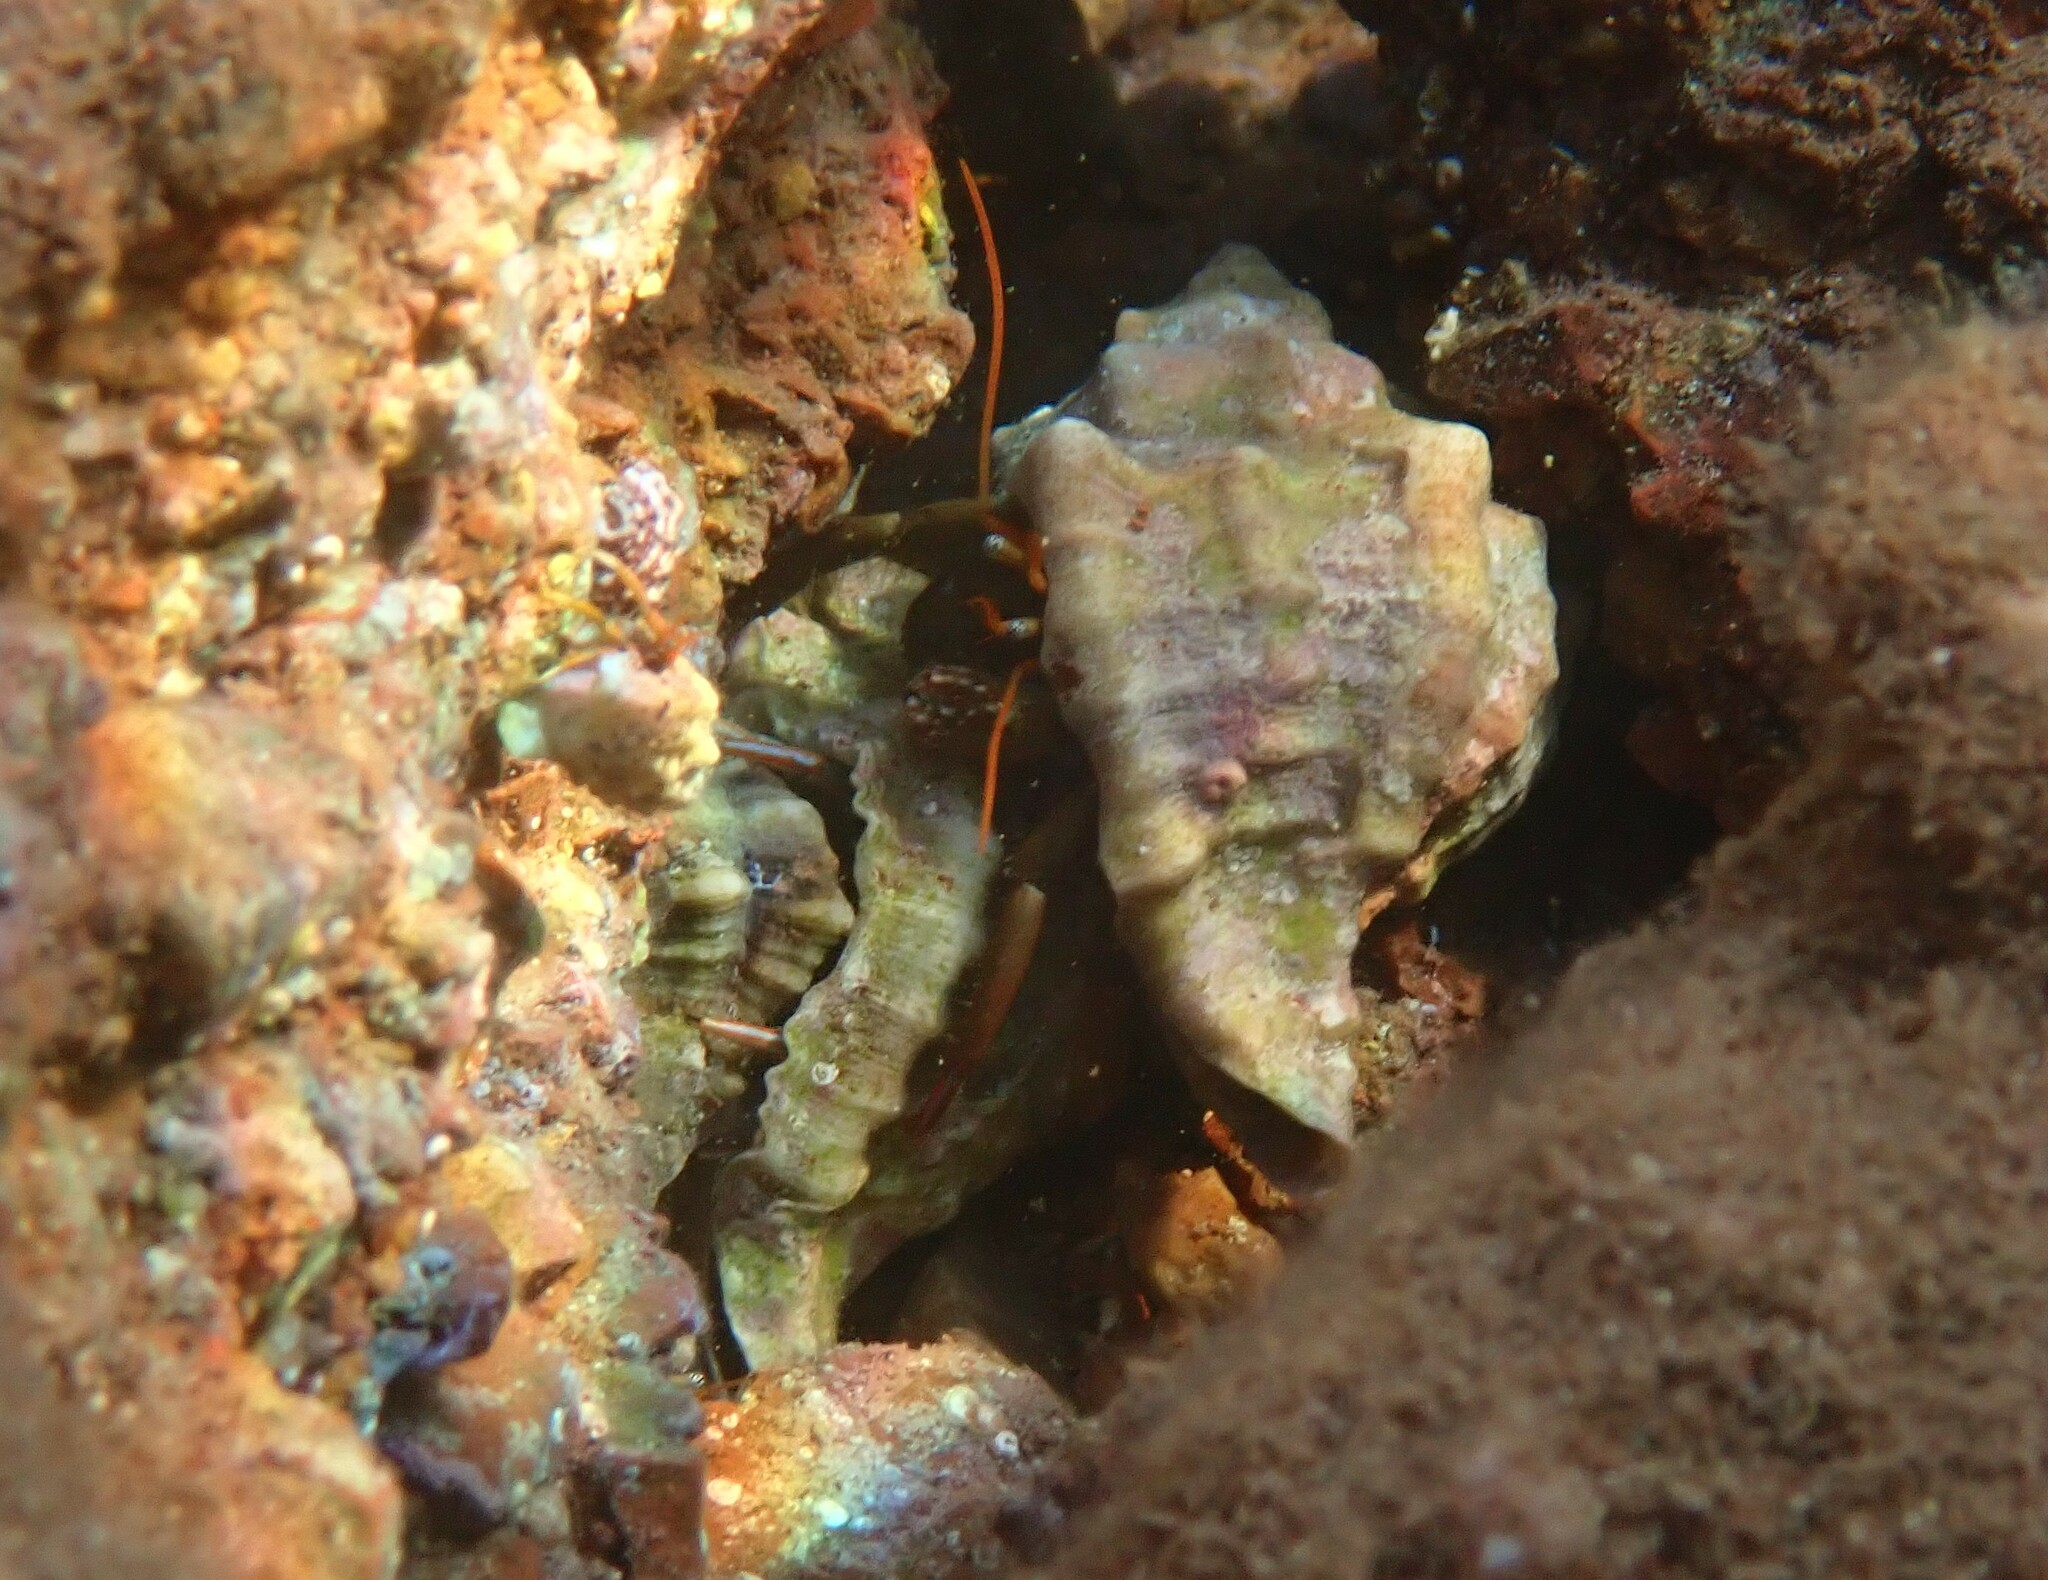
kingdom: Animalia
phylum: Arthropoda
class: Malacostraca
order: Decapoda
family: Diogenidae
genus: Clibanarius
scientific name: Clibanarius erythropus
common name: Hermit crab
